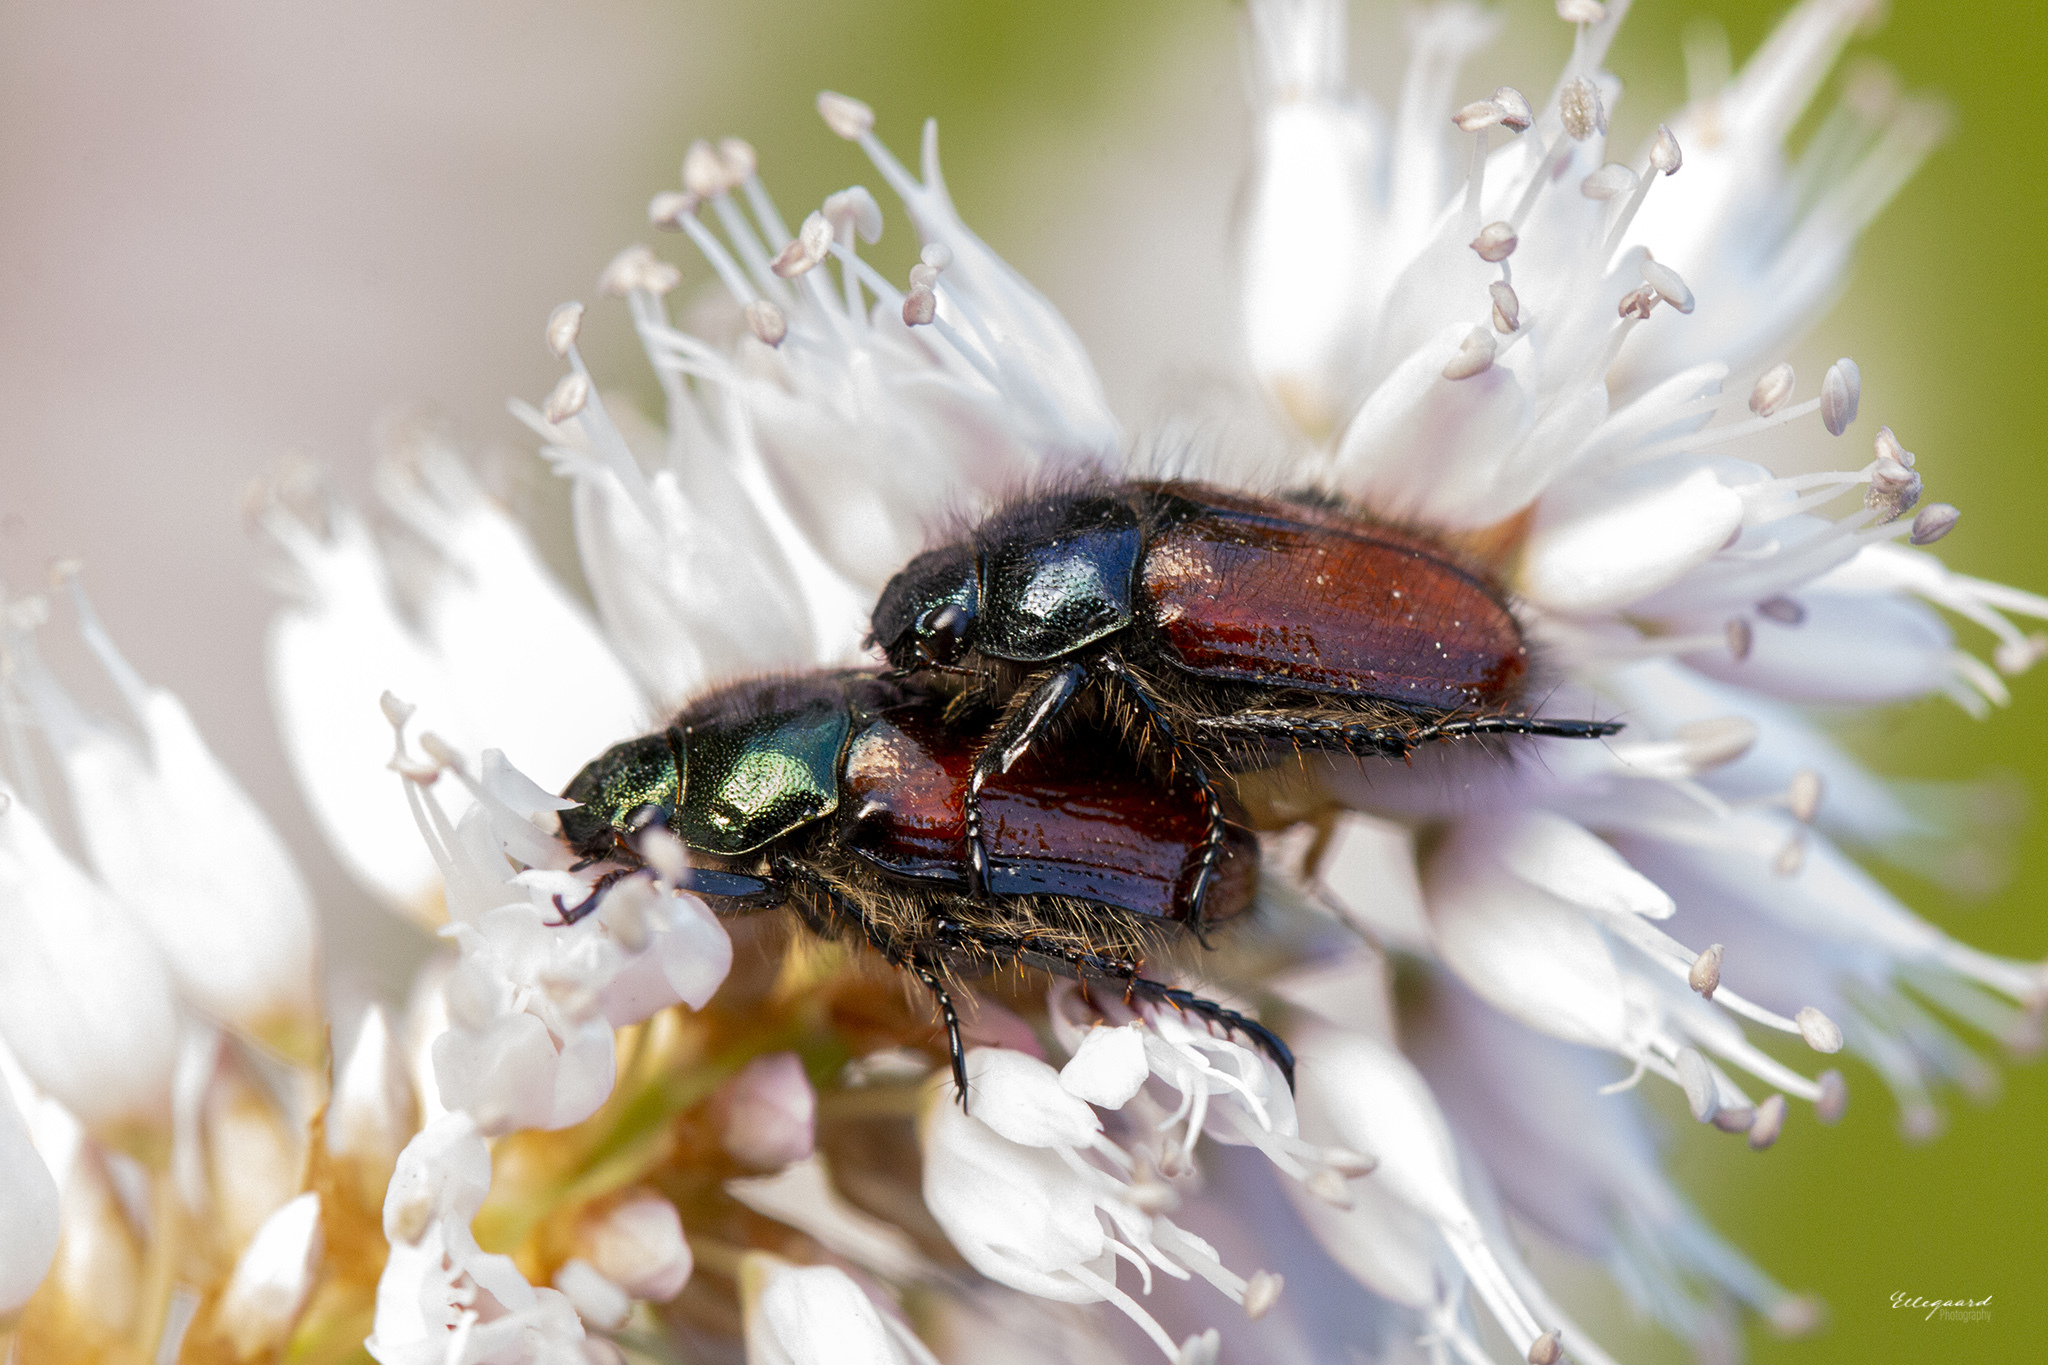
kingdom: Animalia
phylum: Arthropoda
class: Insecta
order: Coleoptera
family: Scarabaeidae
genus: Phyllopertha
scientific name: Phyllopertha horticola
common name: Garden chafer
